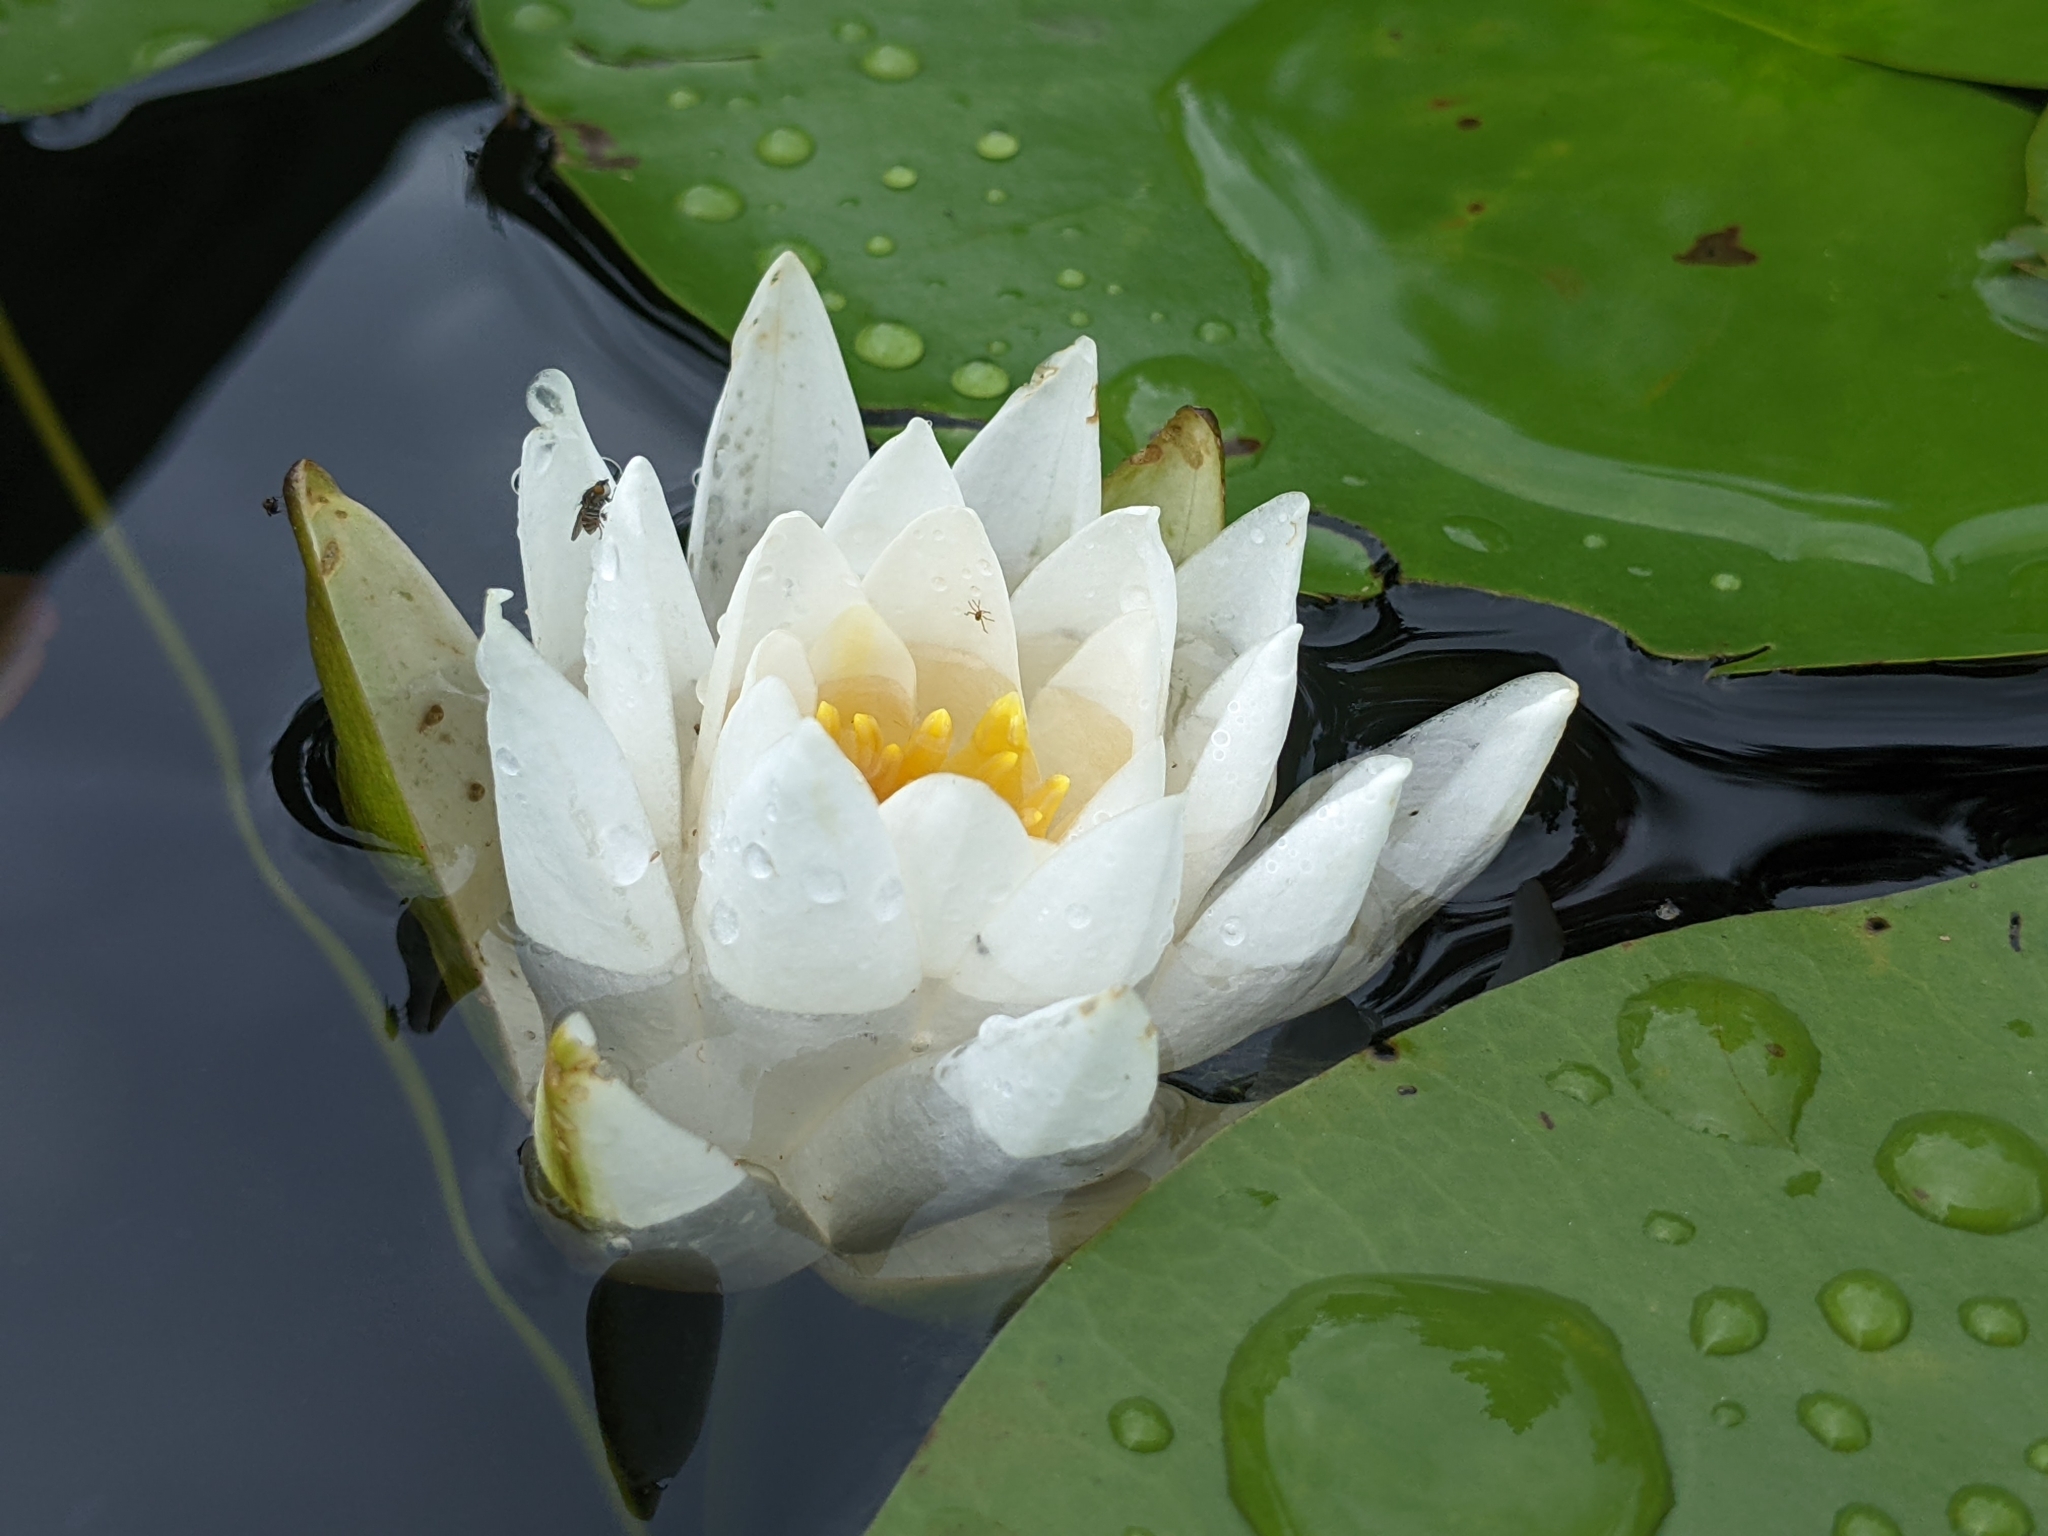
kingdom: Plantae
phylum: Tracheophyta
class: Magnoliopsida
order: Nymphaeales
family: Nymphaeaceae
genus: Nymphaea
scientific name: Nymphaea odorata
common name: Fragrant water-lily
